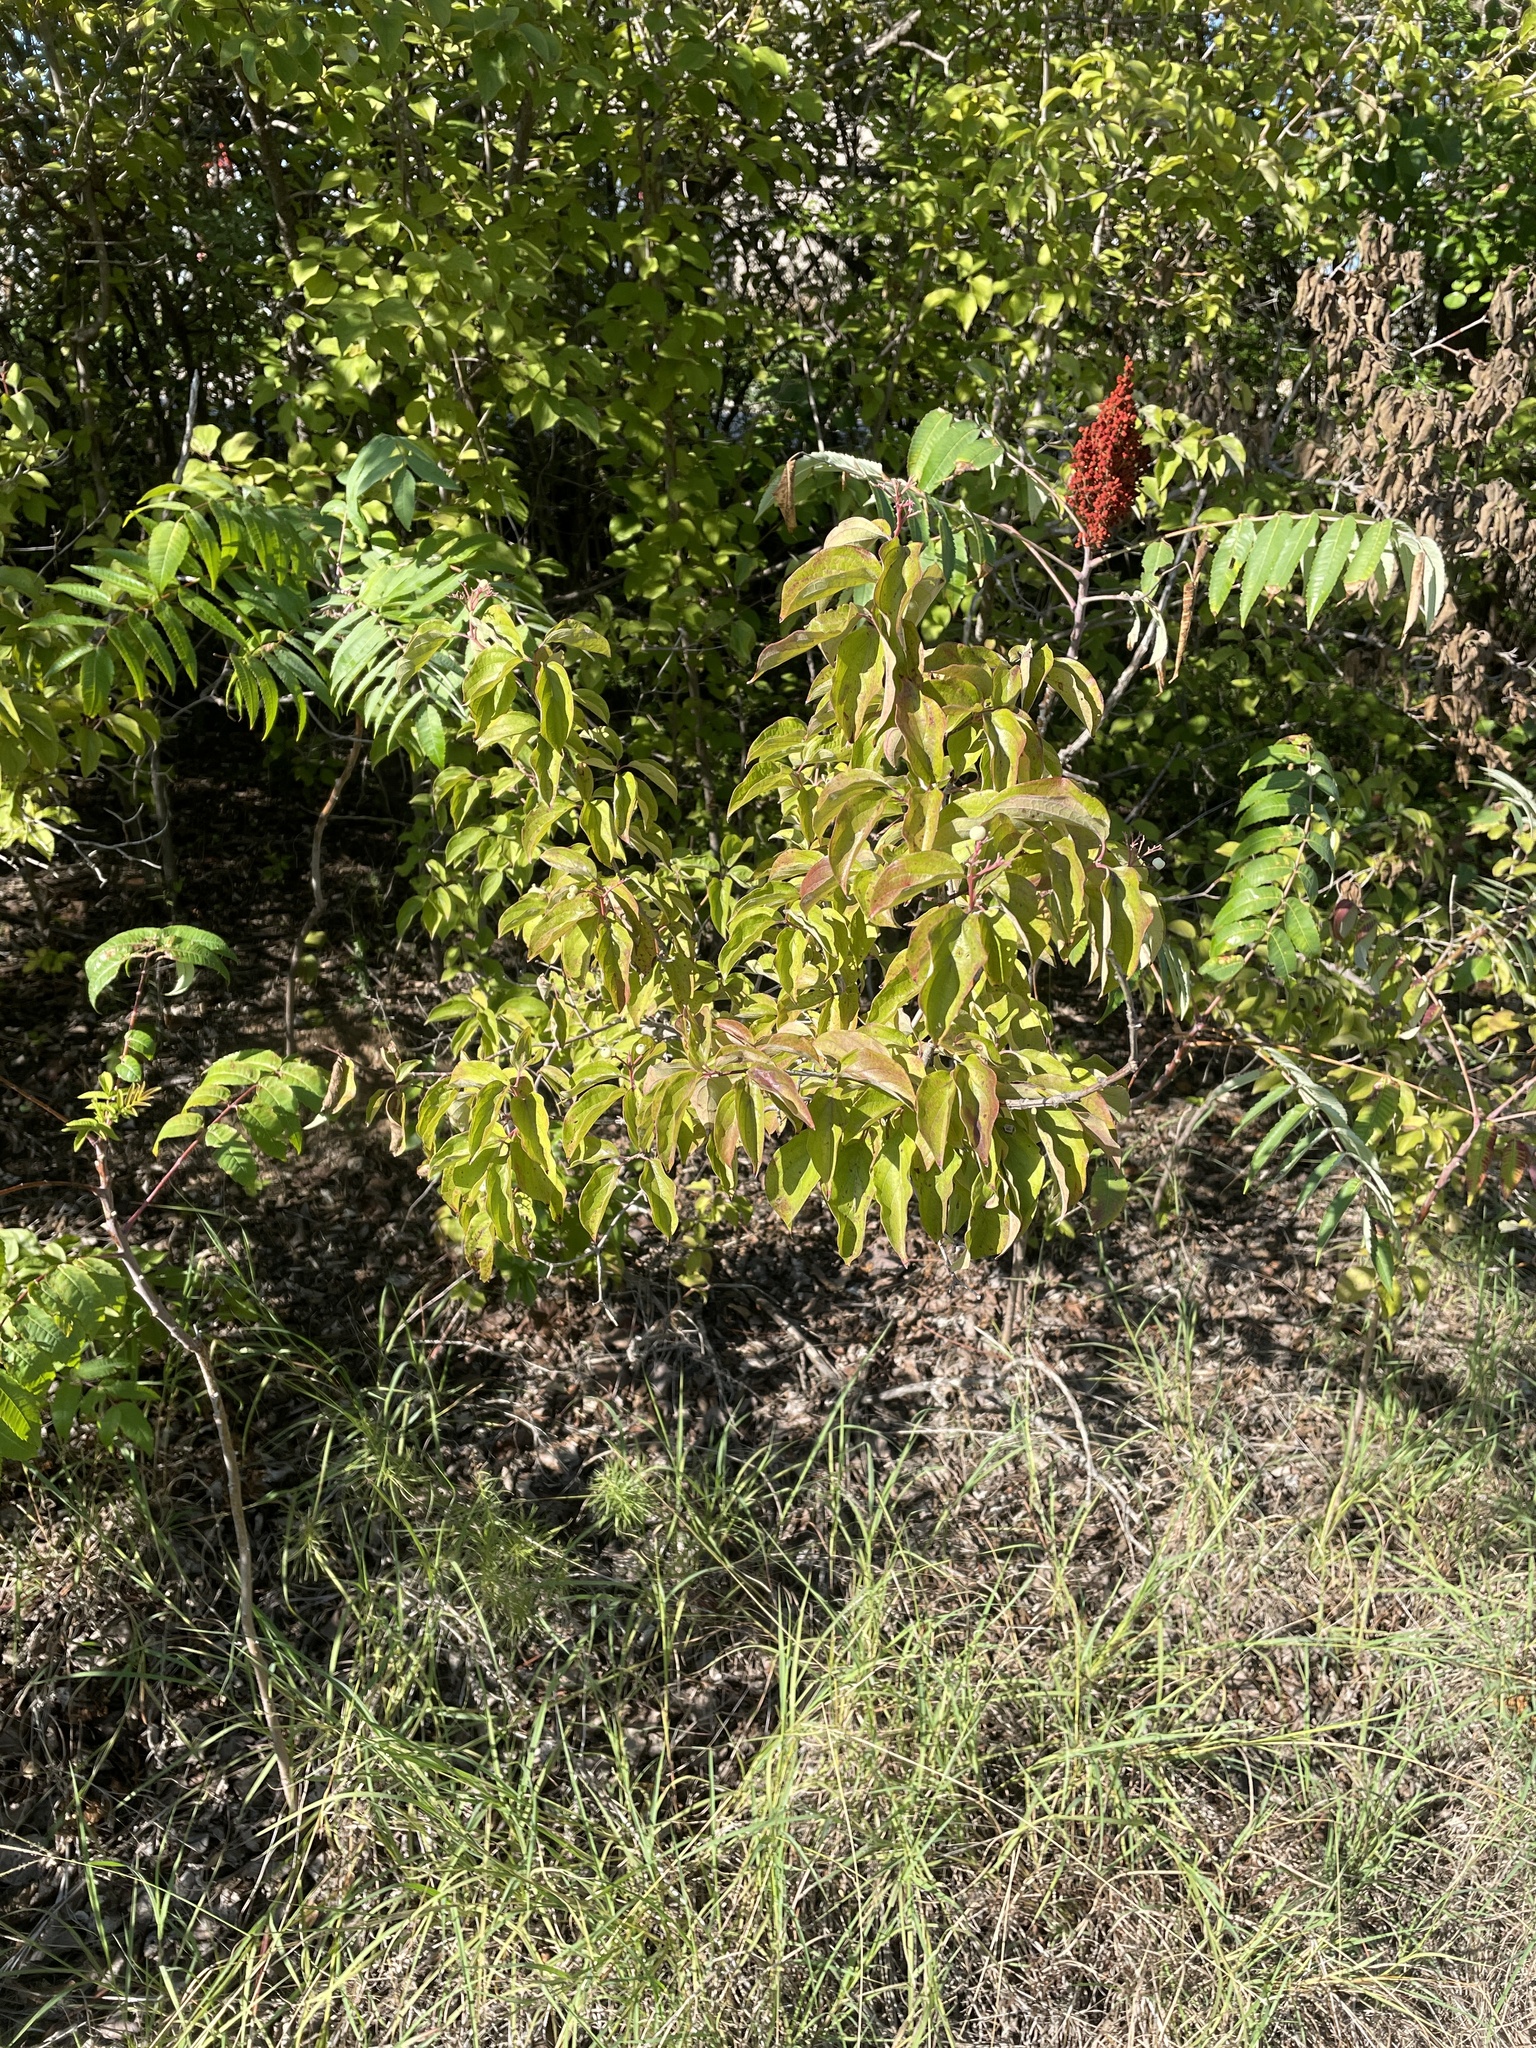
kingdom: Plantae
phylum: Tracheophyta
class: Magnoliopsida
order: Cornales
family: Cornaceae
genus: Cornus
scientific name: Cornus drummondii
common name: Rough-leaf dogwood
